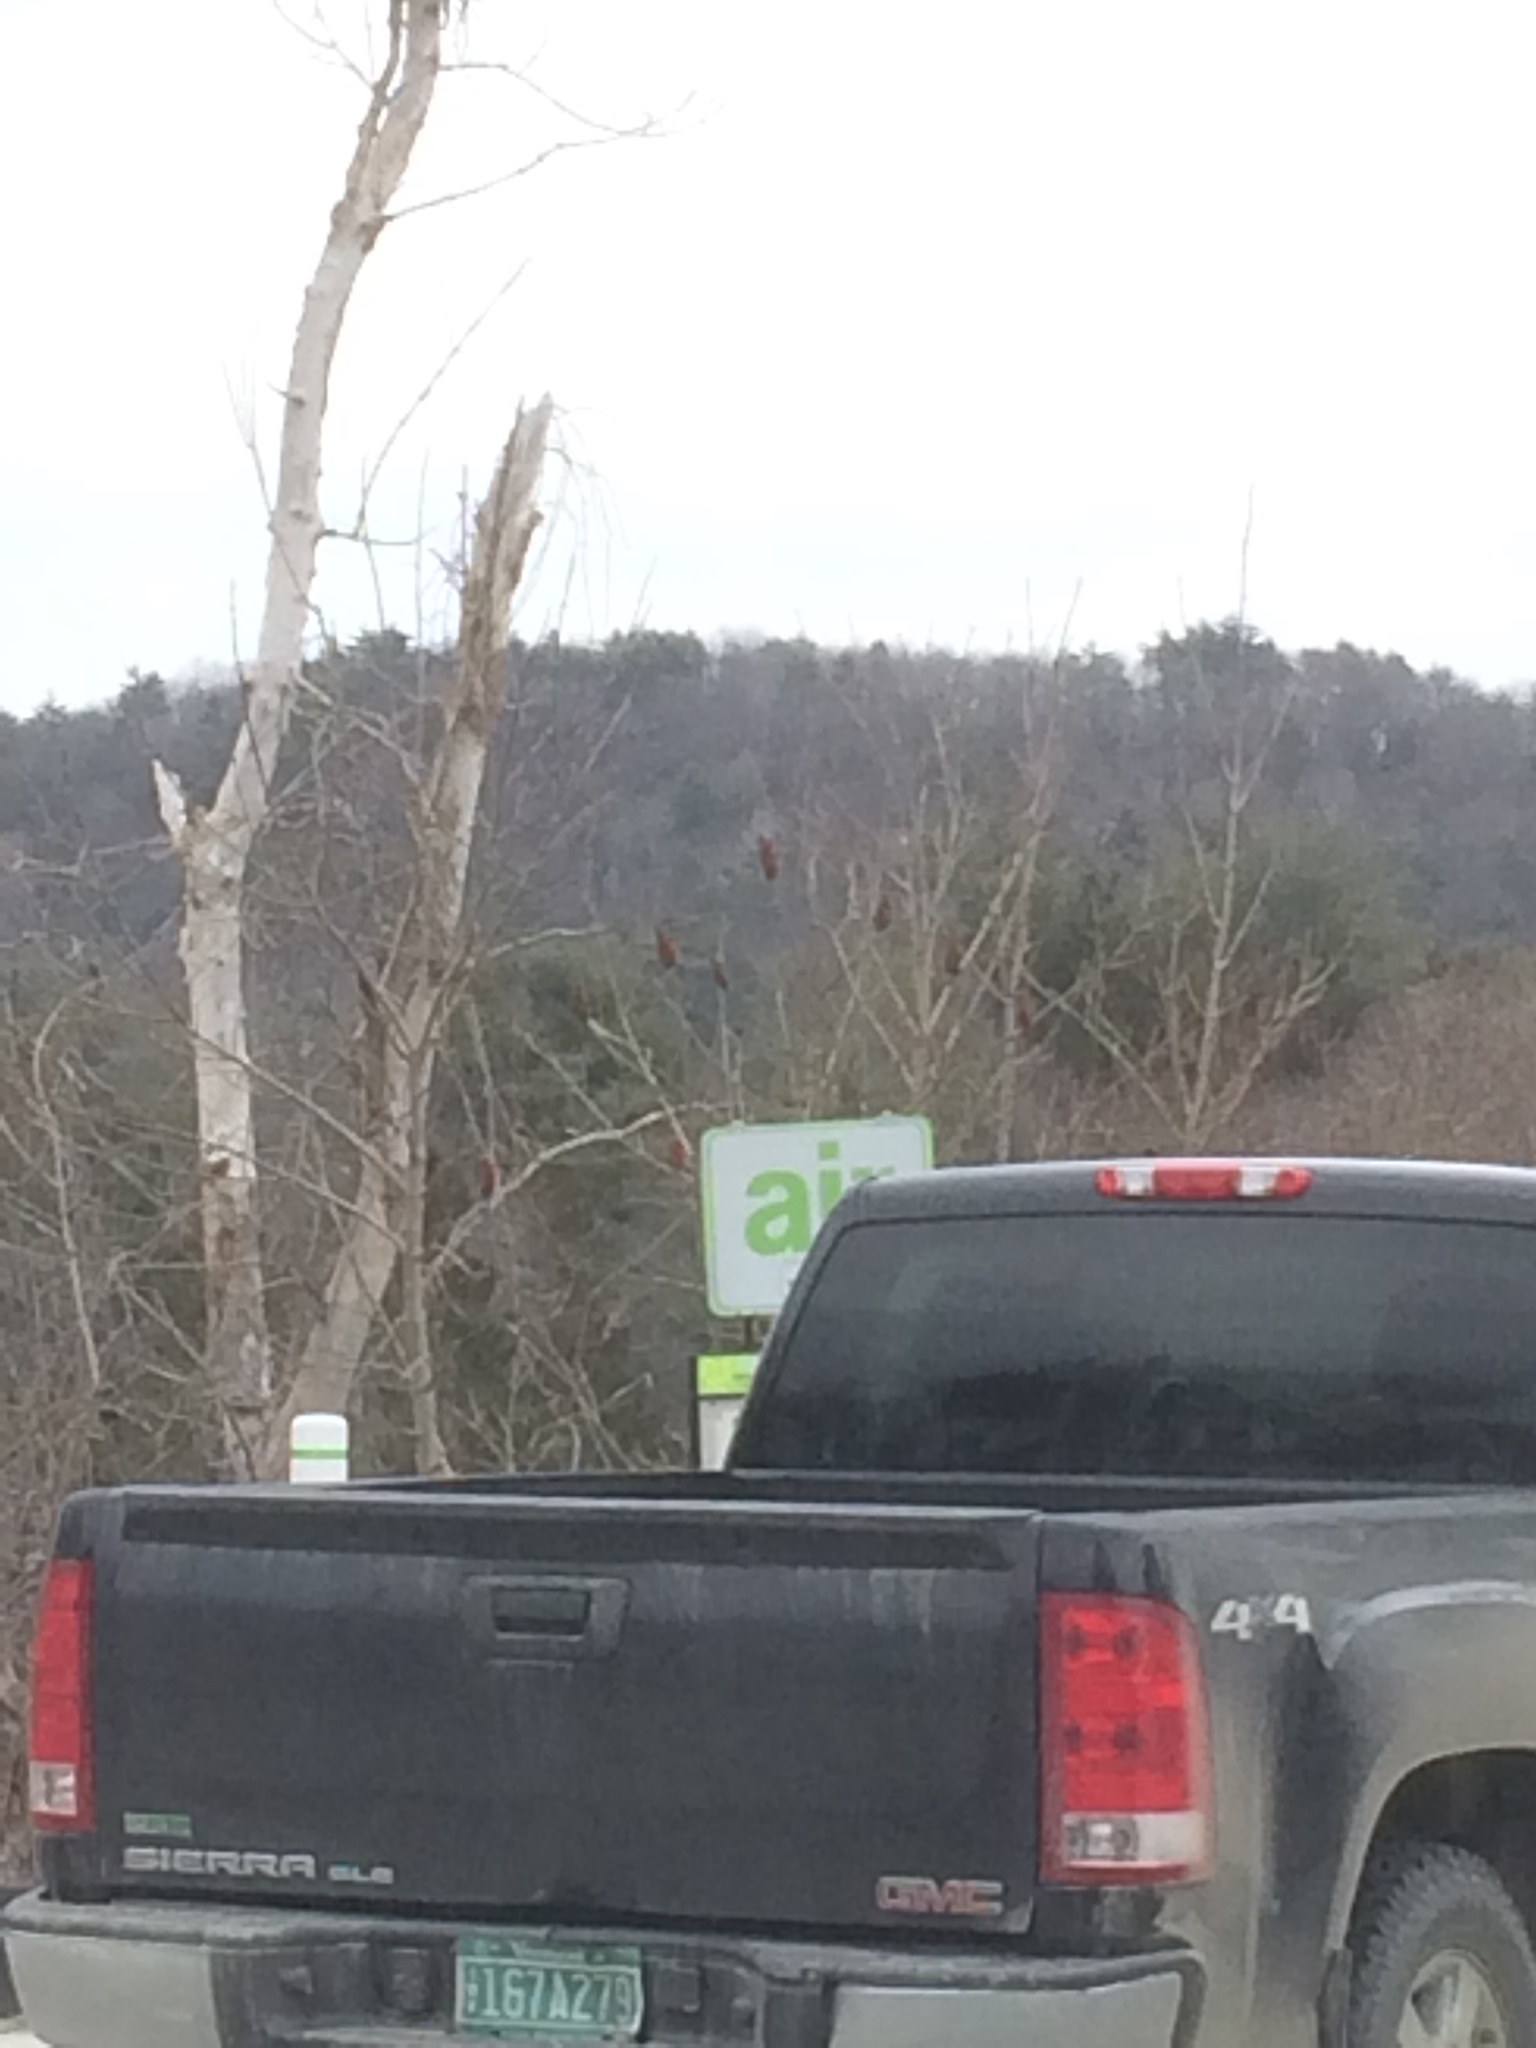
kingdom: Plantae
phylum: Tracheophyta
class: Magnoliopsida
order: Sapindales
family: Anacardiaceae
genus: Rhus
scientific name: Rhus typhina
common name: Staghorn sumac
